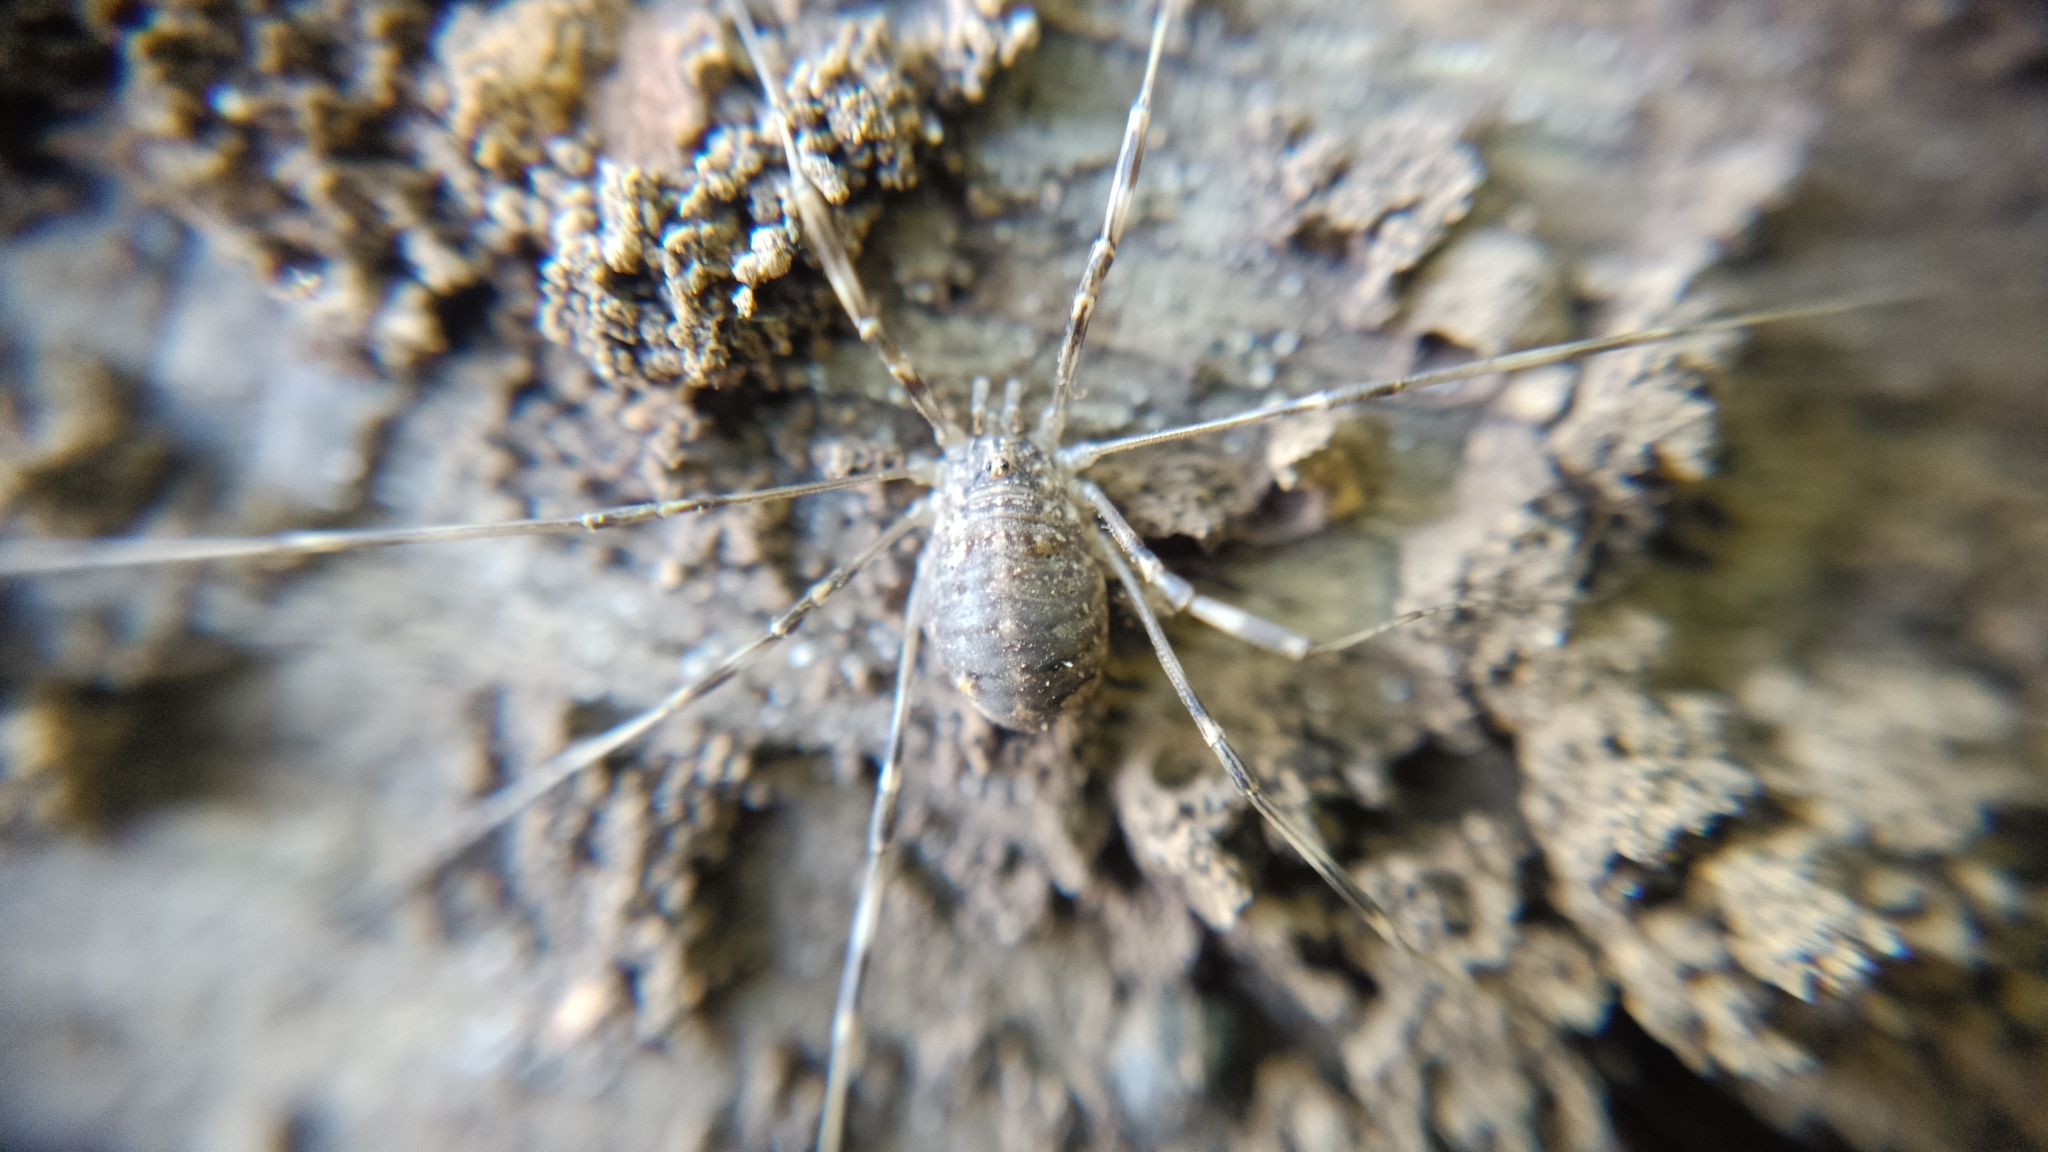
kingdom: Animalia
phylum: Arthropoda
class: Arachnida
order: Opiliones
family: Phalangiidae
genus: Opilio
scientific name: Opilio saxatilis
